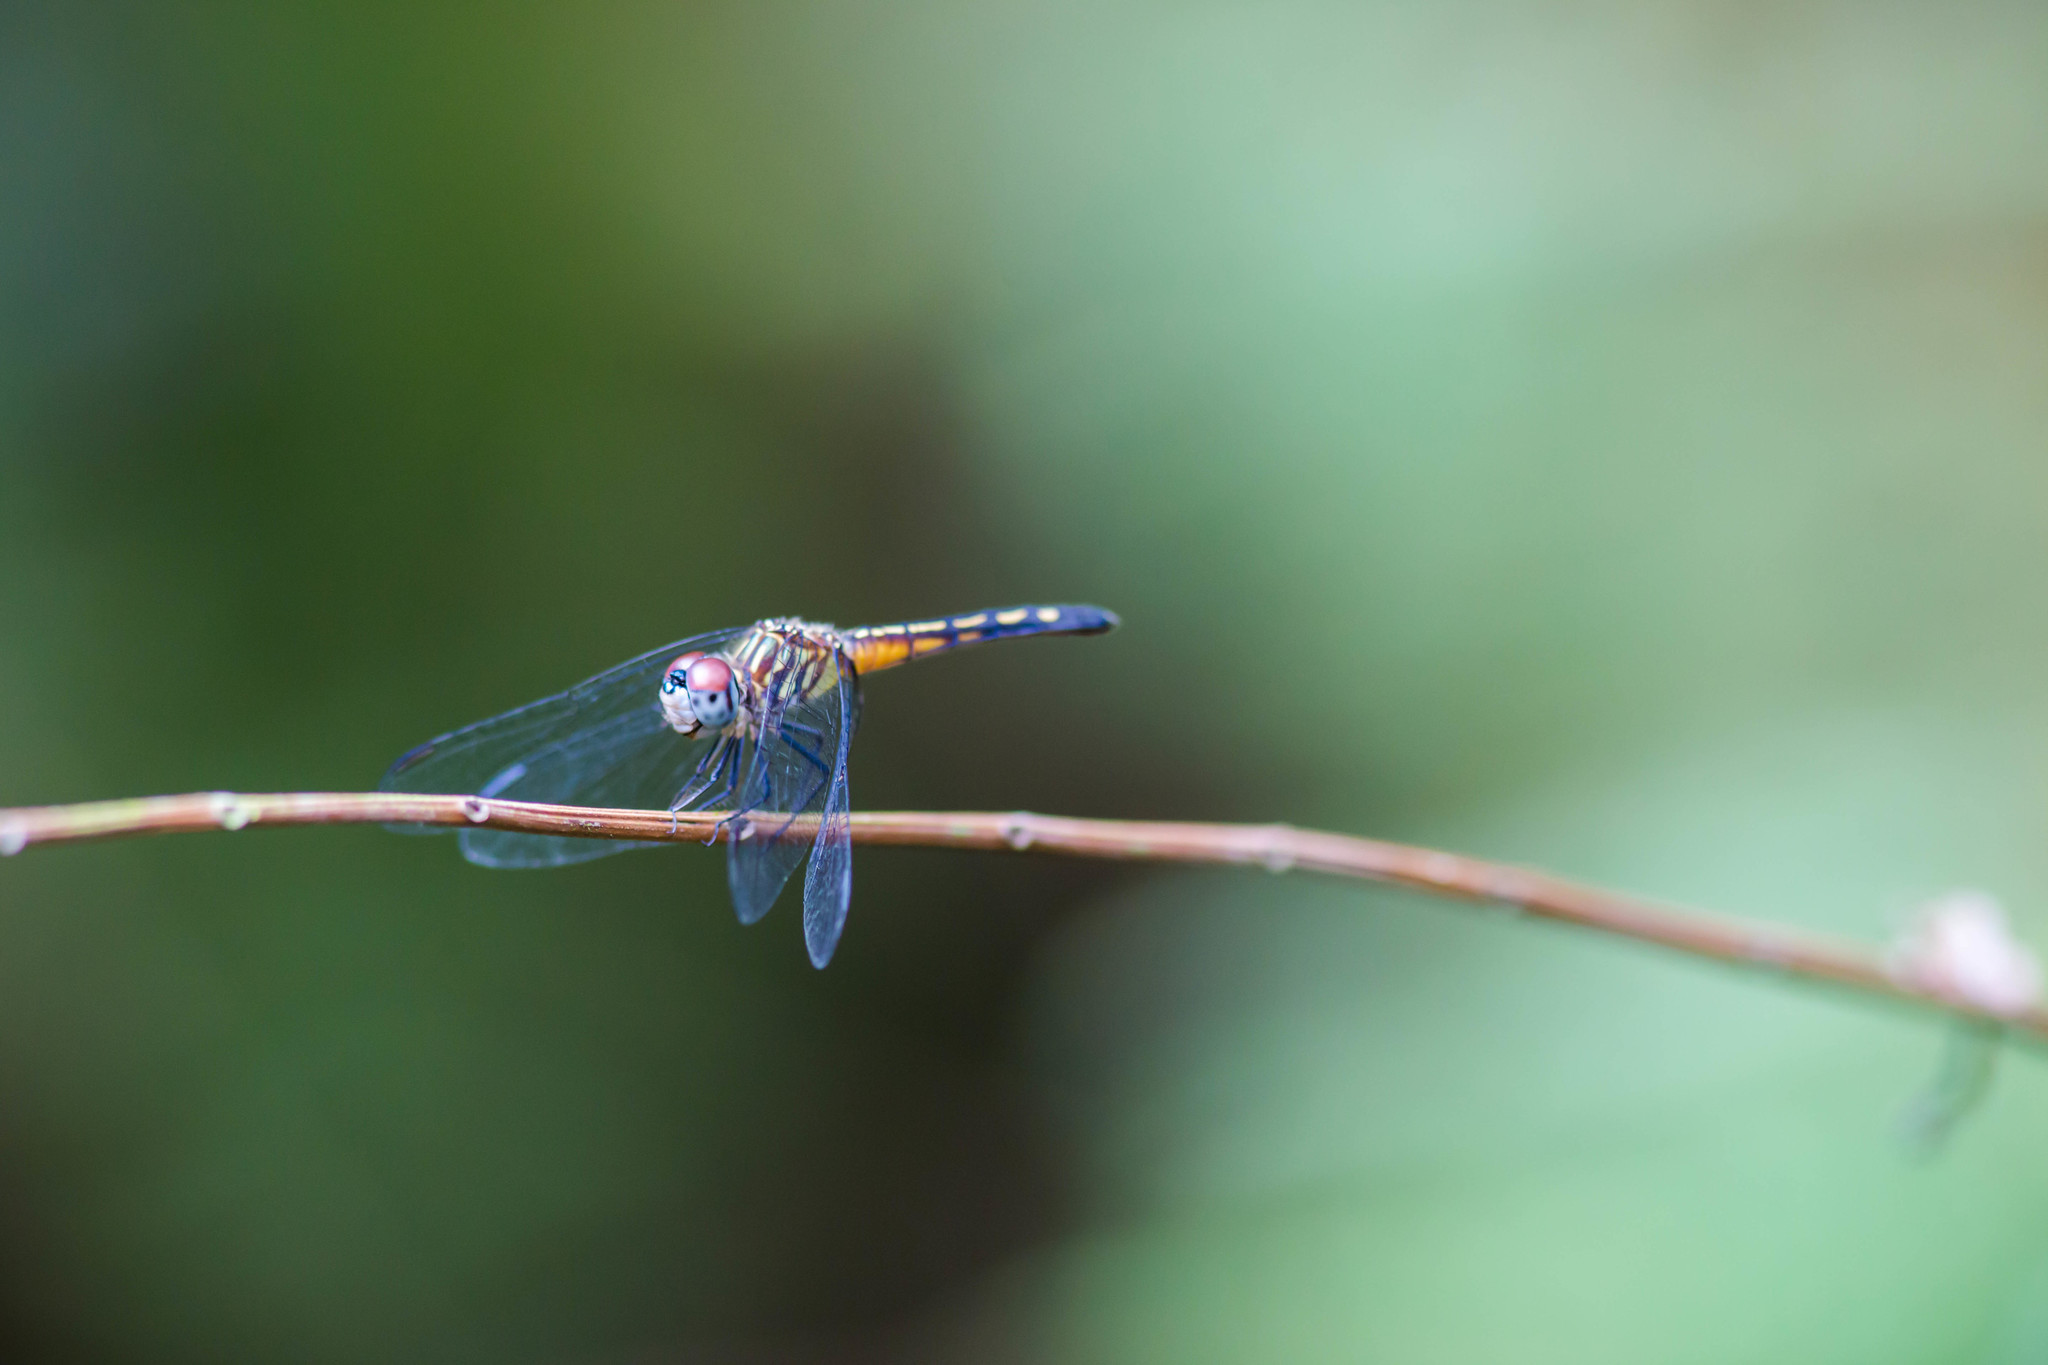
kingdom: Animalia
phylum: Arthropoda
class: Insecta
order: Odonata
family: Libellulidae
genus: Pachydiplax
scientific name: Pachydiplax longipennis
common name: Blue dasher
